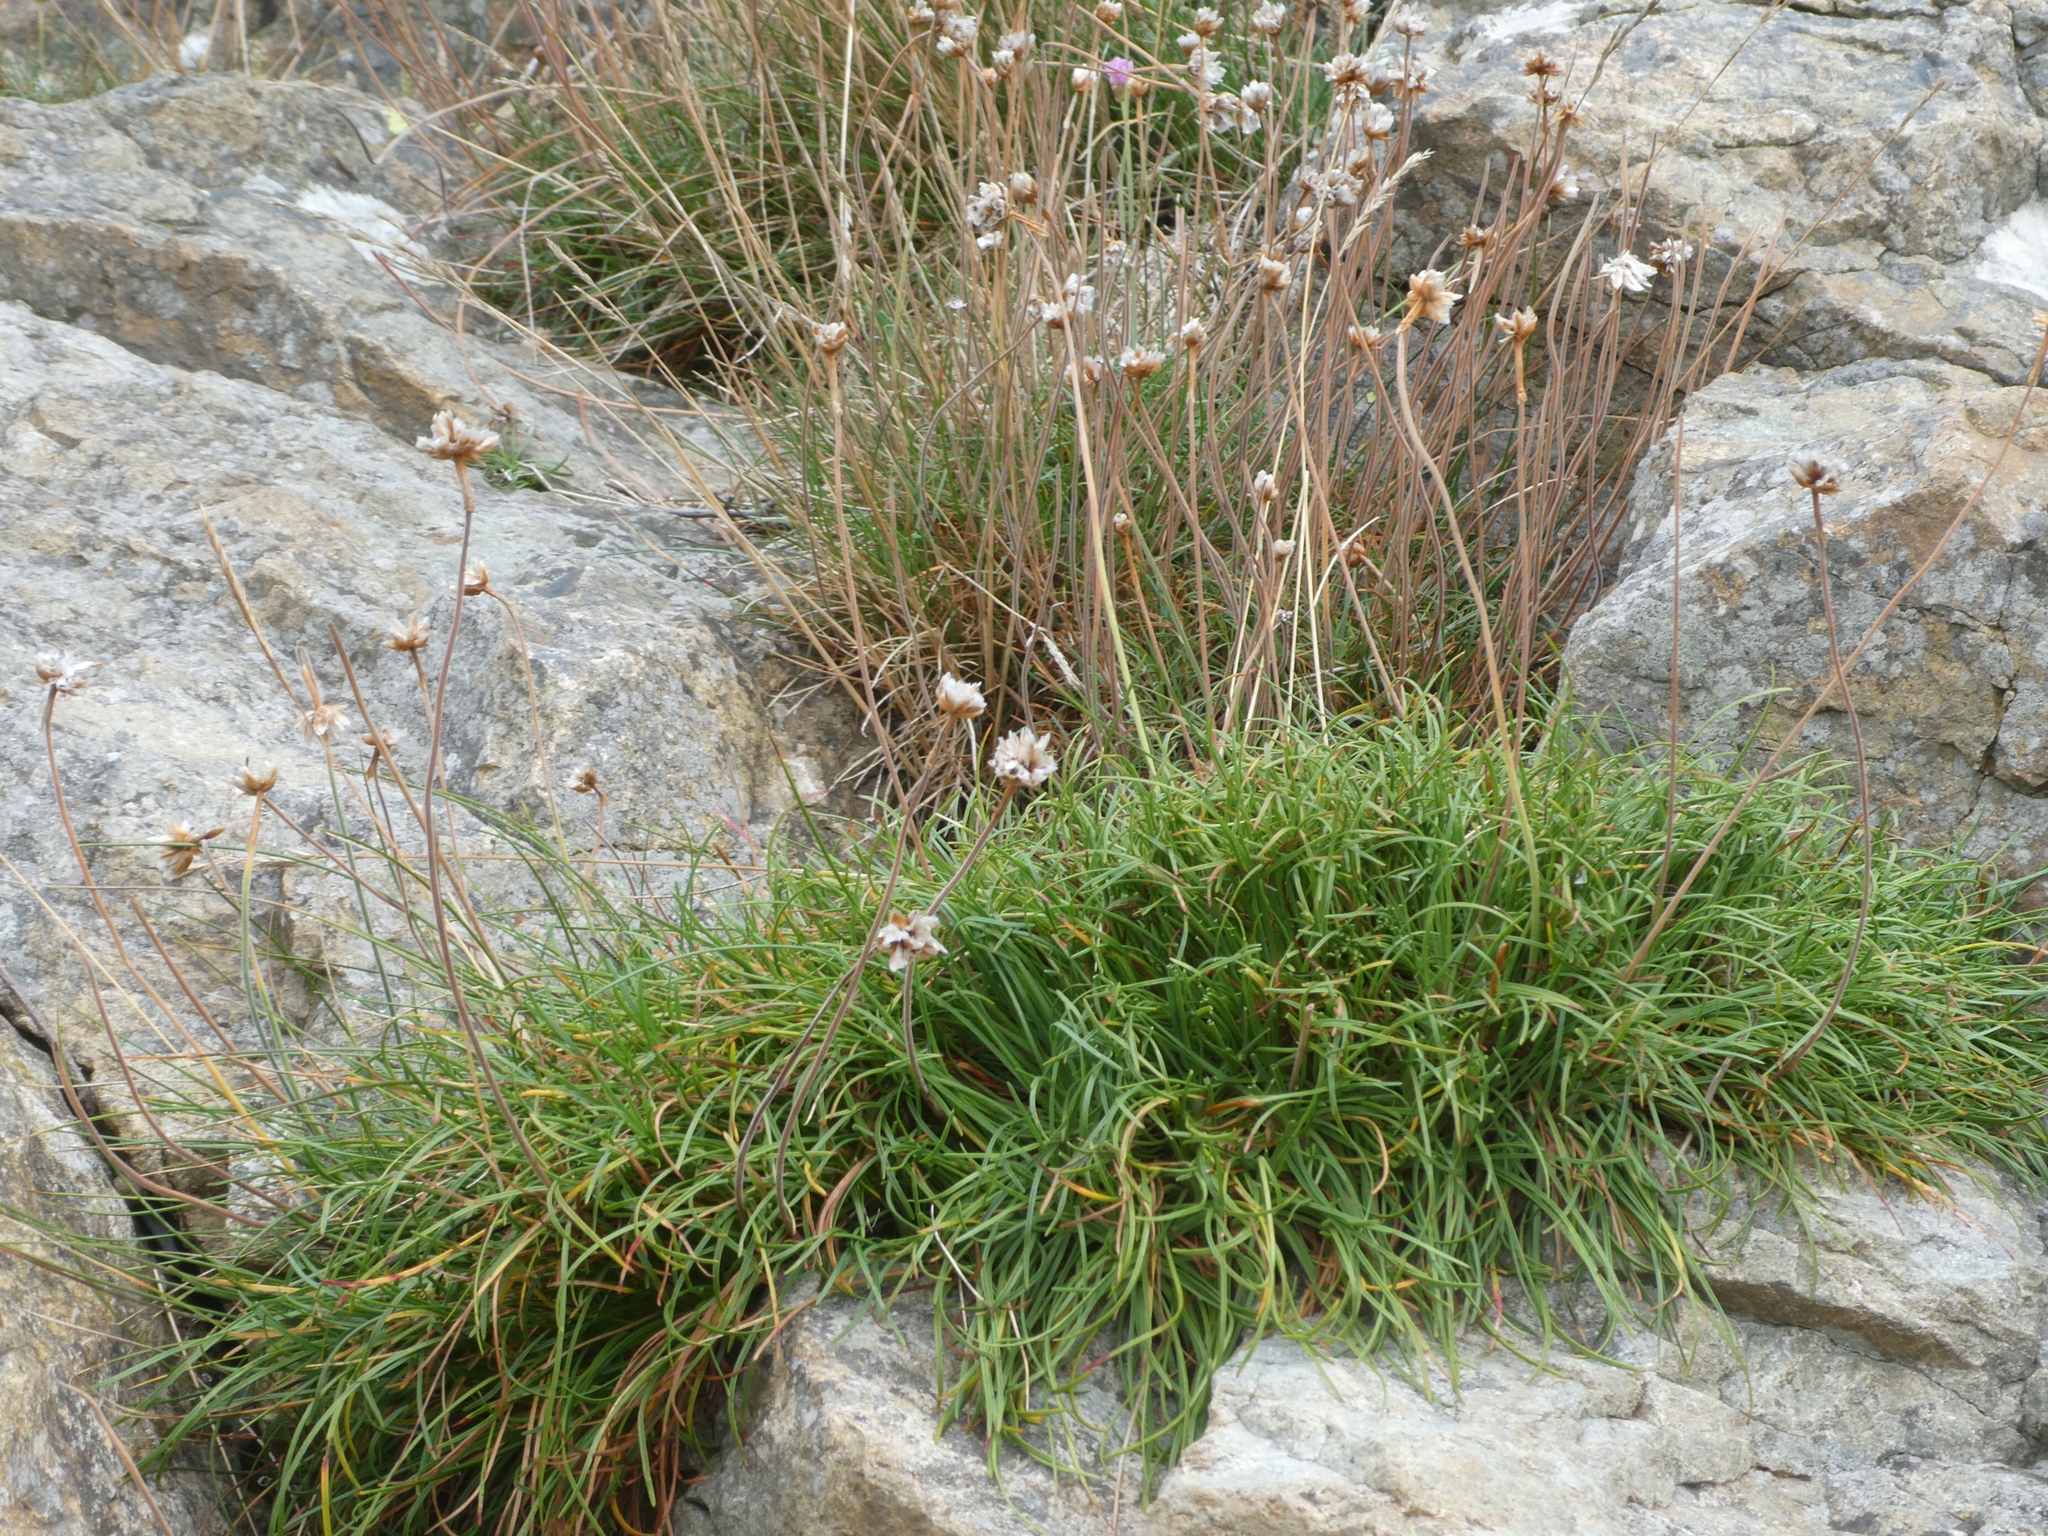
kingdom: Plantae
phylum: Tracheophyta
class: Magnoliopsida
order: Caryophyllales
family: Plumbaginaceae
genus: Armeria
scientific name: Armeria maritima
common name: Thrift
